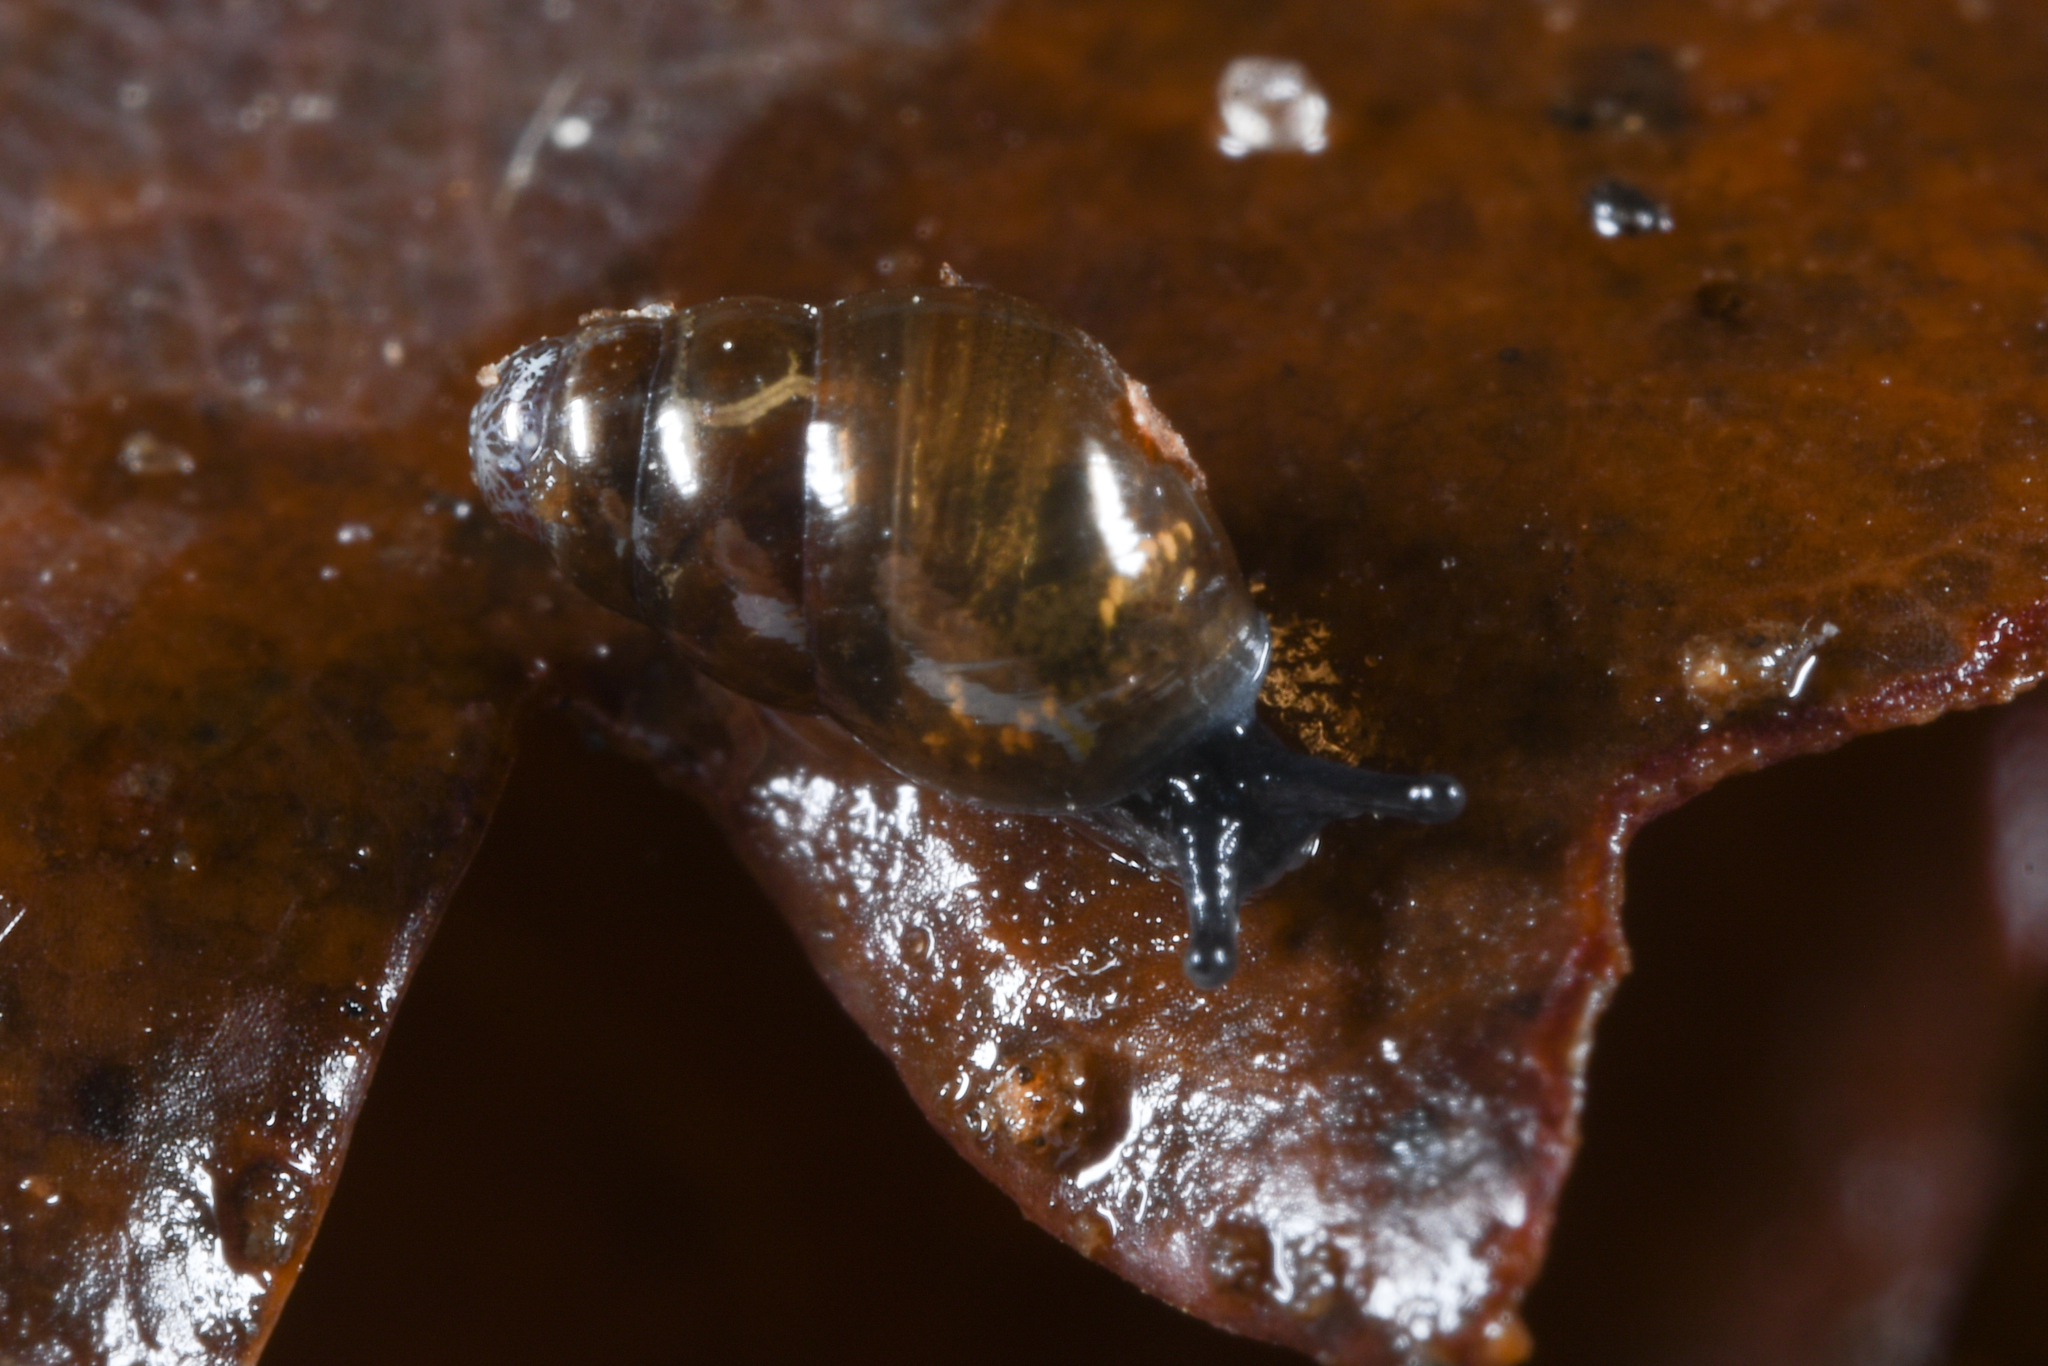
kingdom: Animalia
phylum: Mollusca
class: Gastropoda
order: Stylommatophora
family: Cochlicopidae
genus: Cochlicopa
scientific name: Cochlicopa lubrica
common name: Glossy pillar snail
